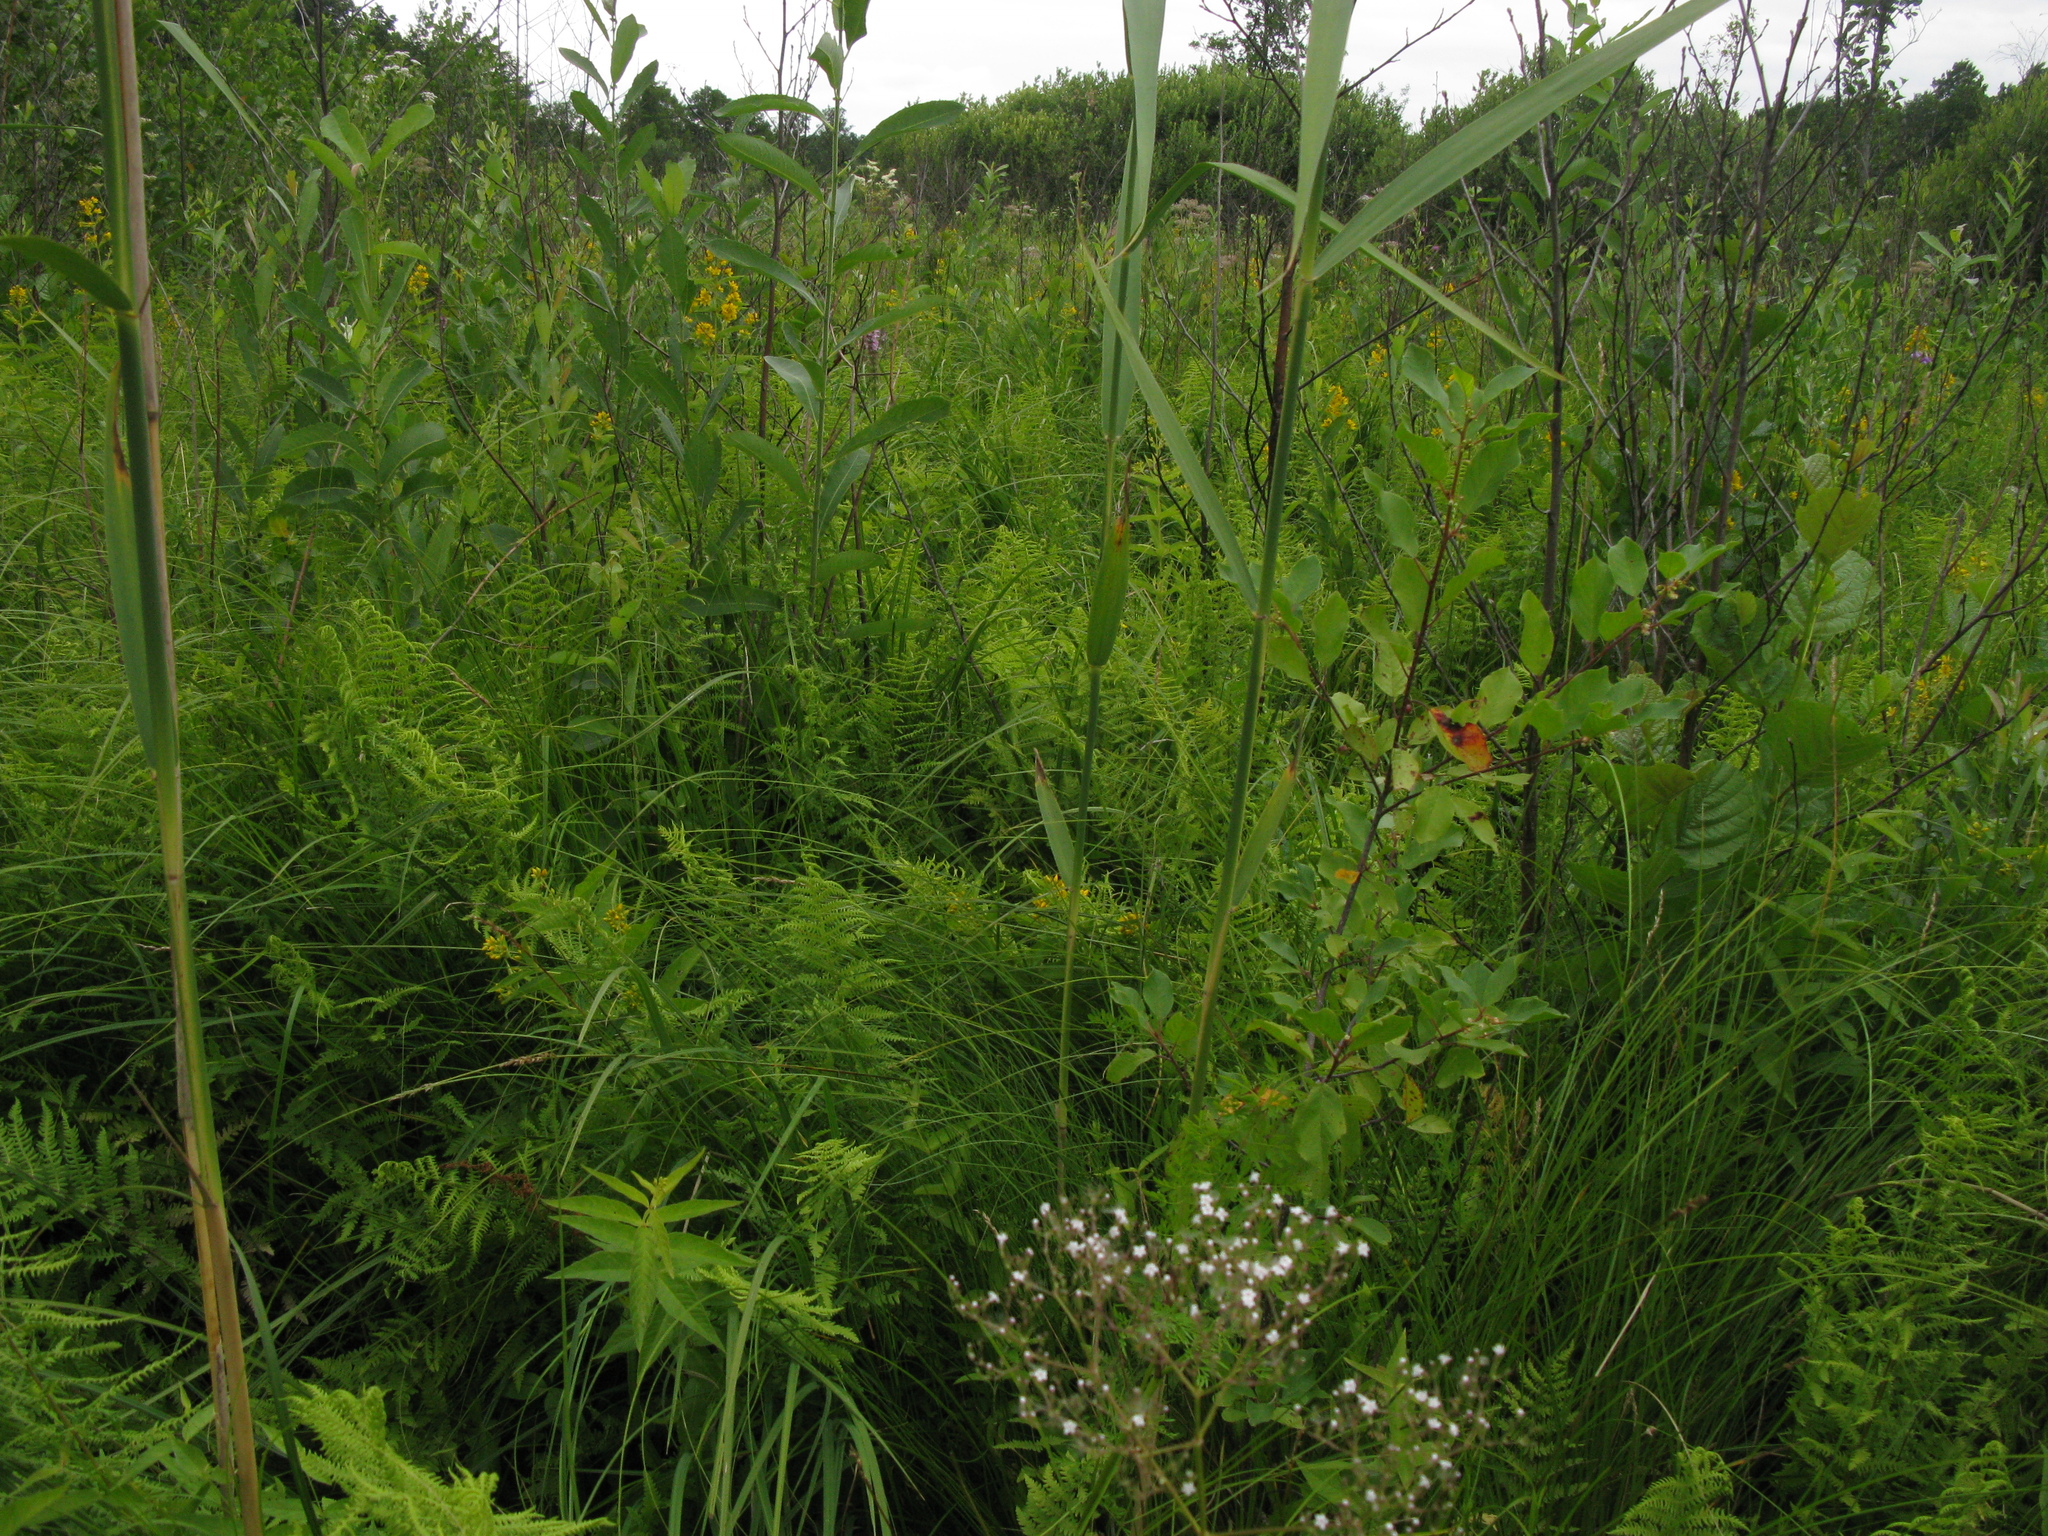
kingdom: Plantae
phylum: Tracheophyta
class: Polypodiopsida
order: Polypodiales
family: Thelypteridaceae
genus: Thelypteris
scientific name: Thelypteris palustris
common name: Marsh fern
